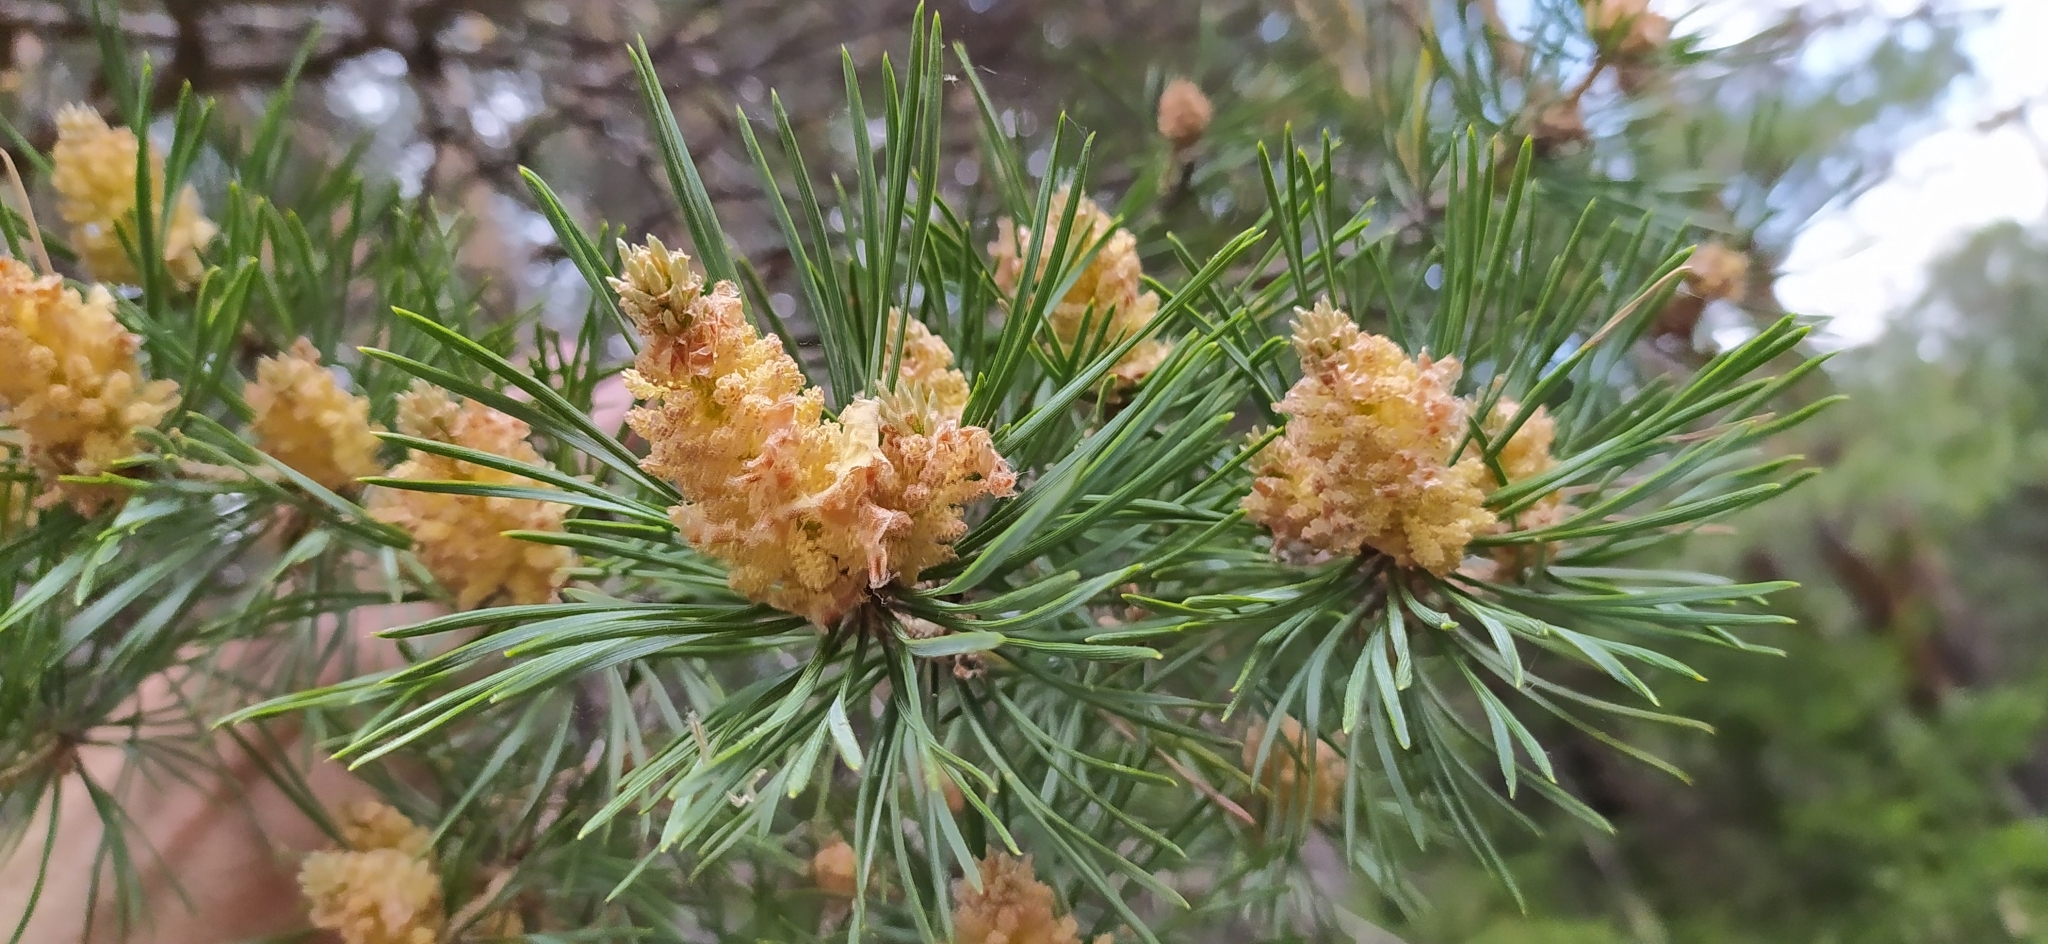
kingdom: Plantae
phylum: Tracheophyta
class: Pinopsida
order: Pinales
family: Pinaceae
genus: Pinus
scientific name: Pinus sylvestris
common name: Scots pine
